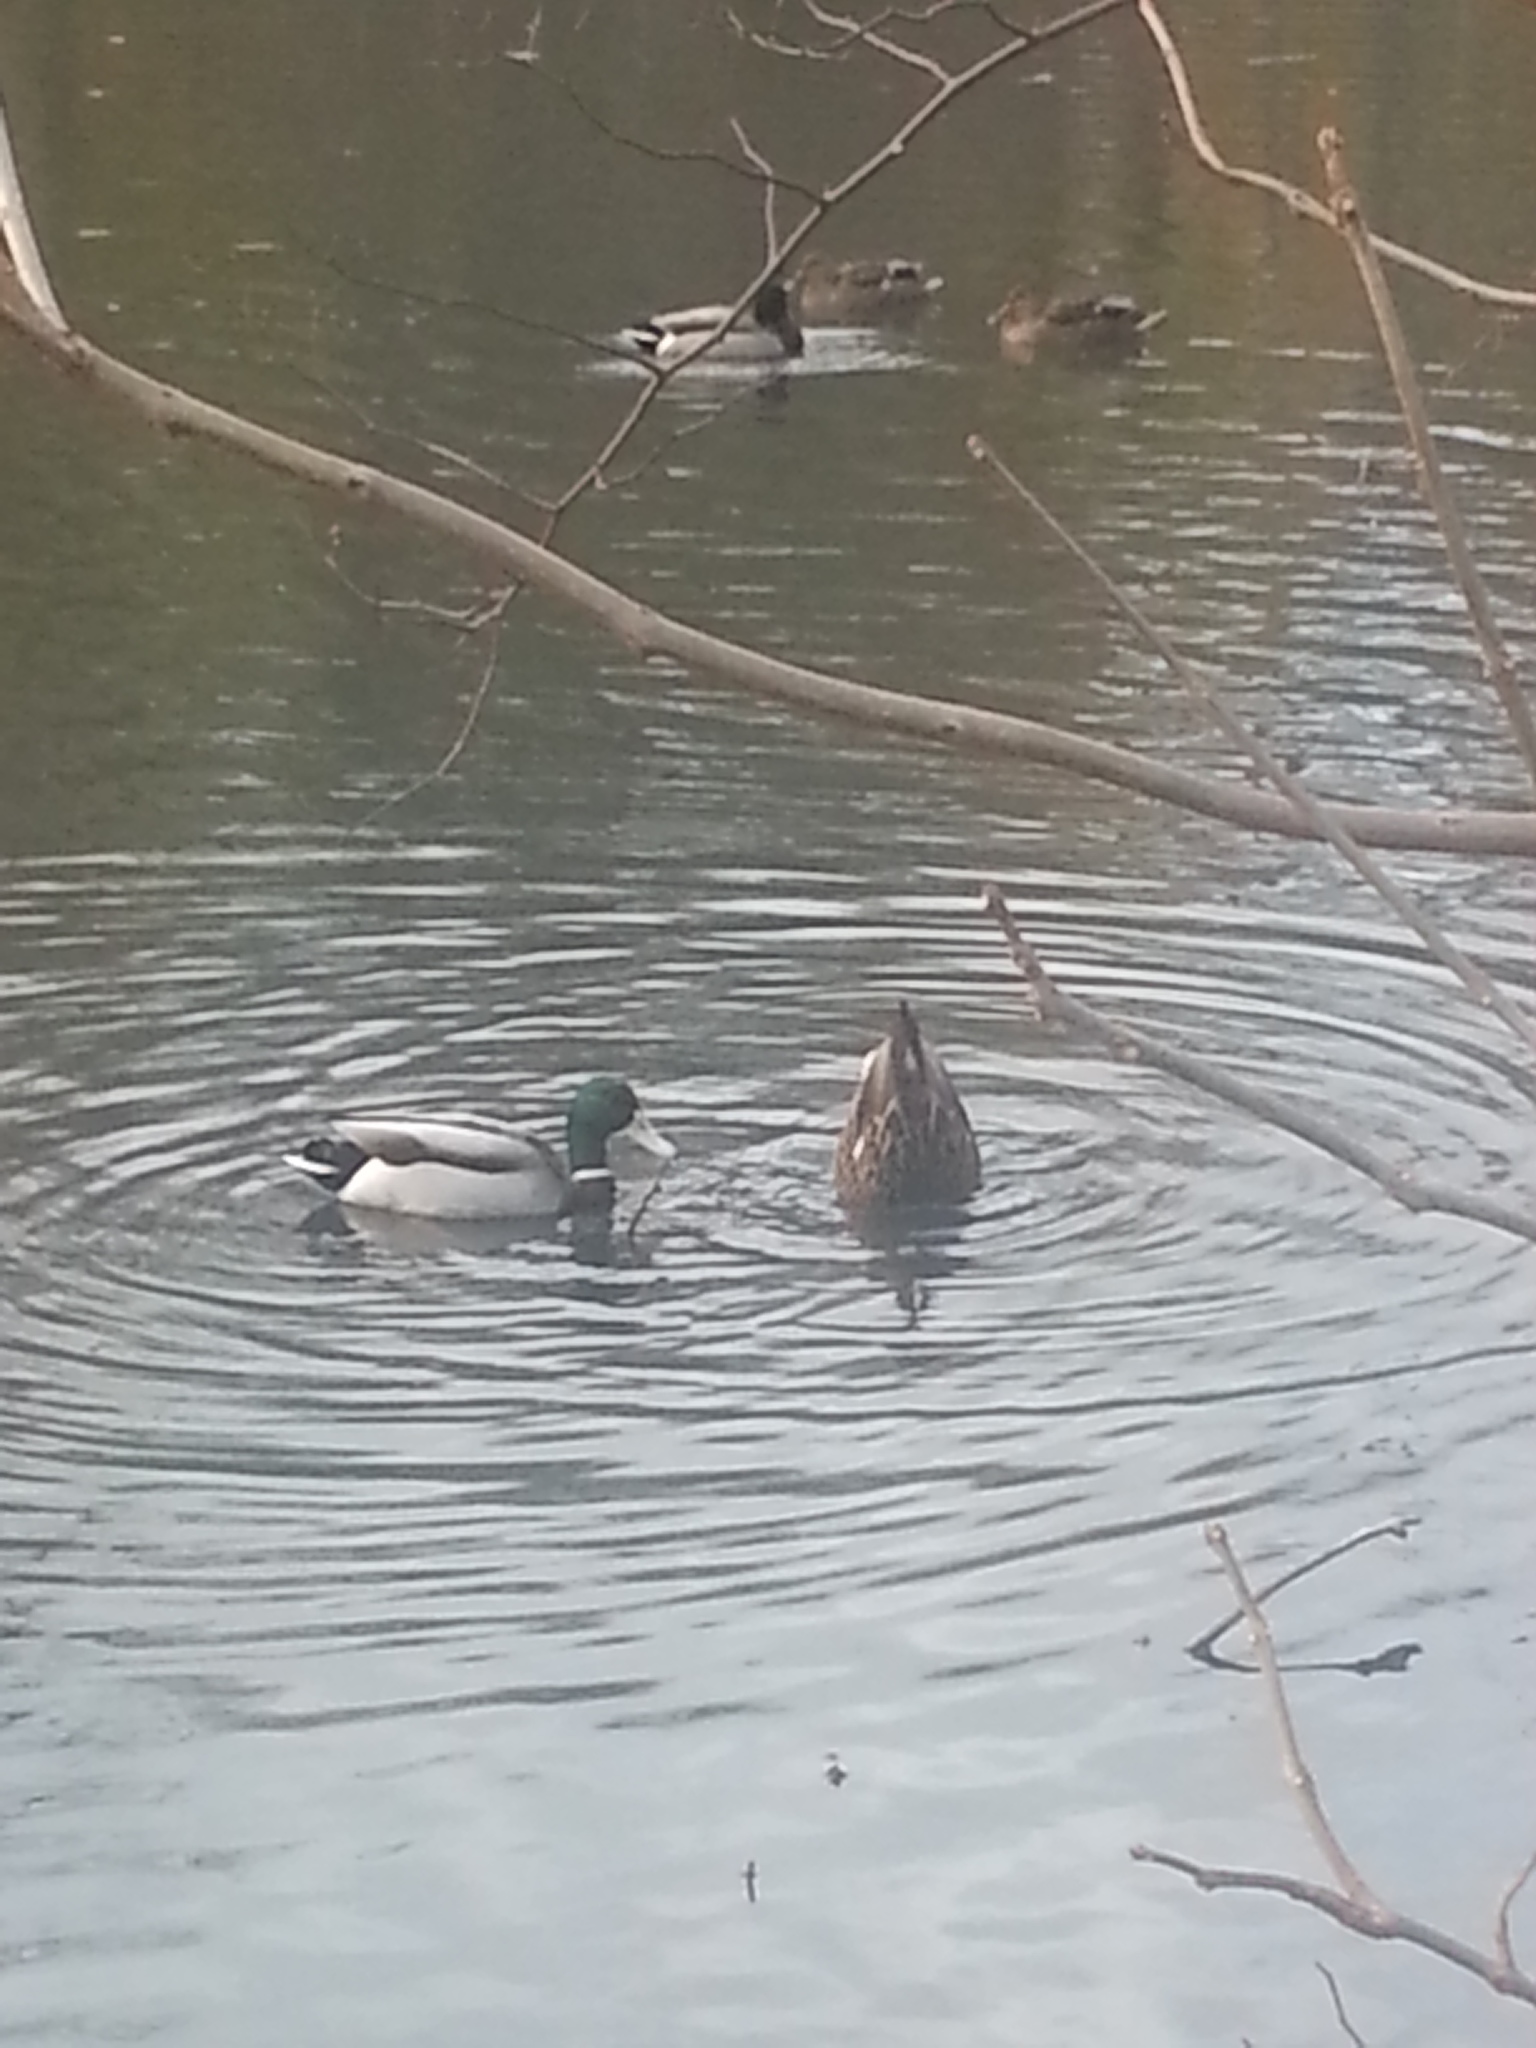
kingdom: Animalia
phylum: Chordata
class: Aves
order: Anseriformes
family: Anatidae
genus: Anas
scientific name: Anas platyrhynchos
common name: Mallard
